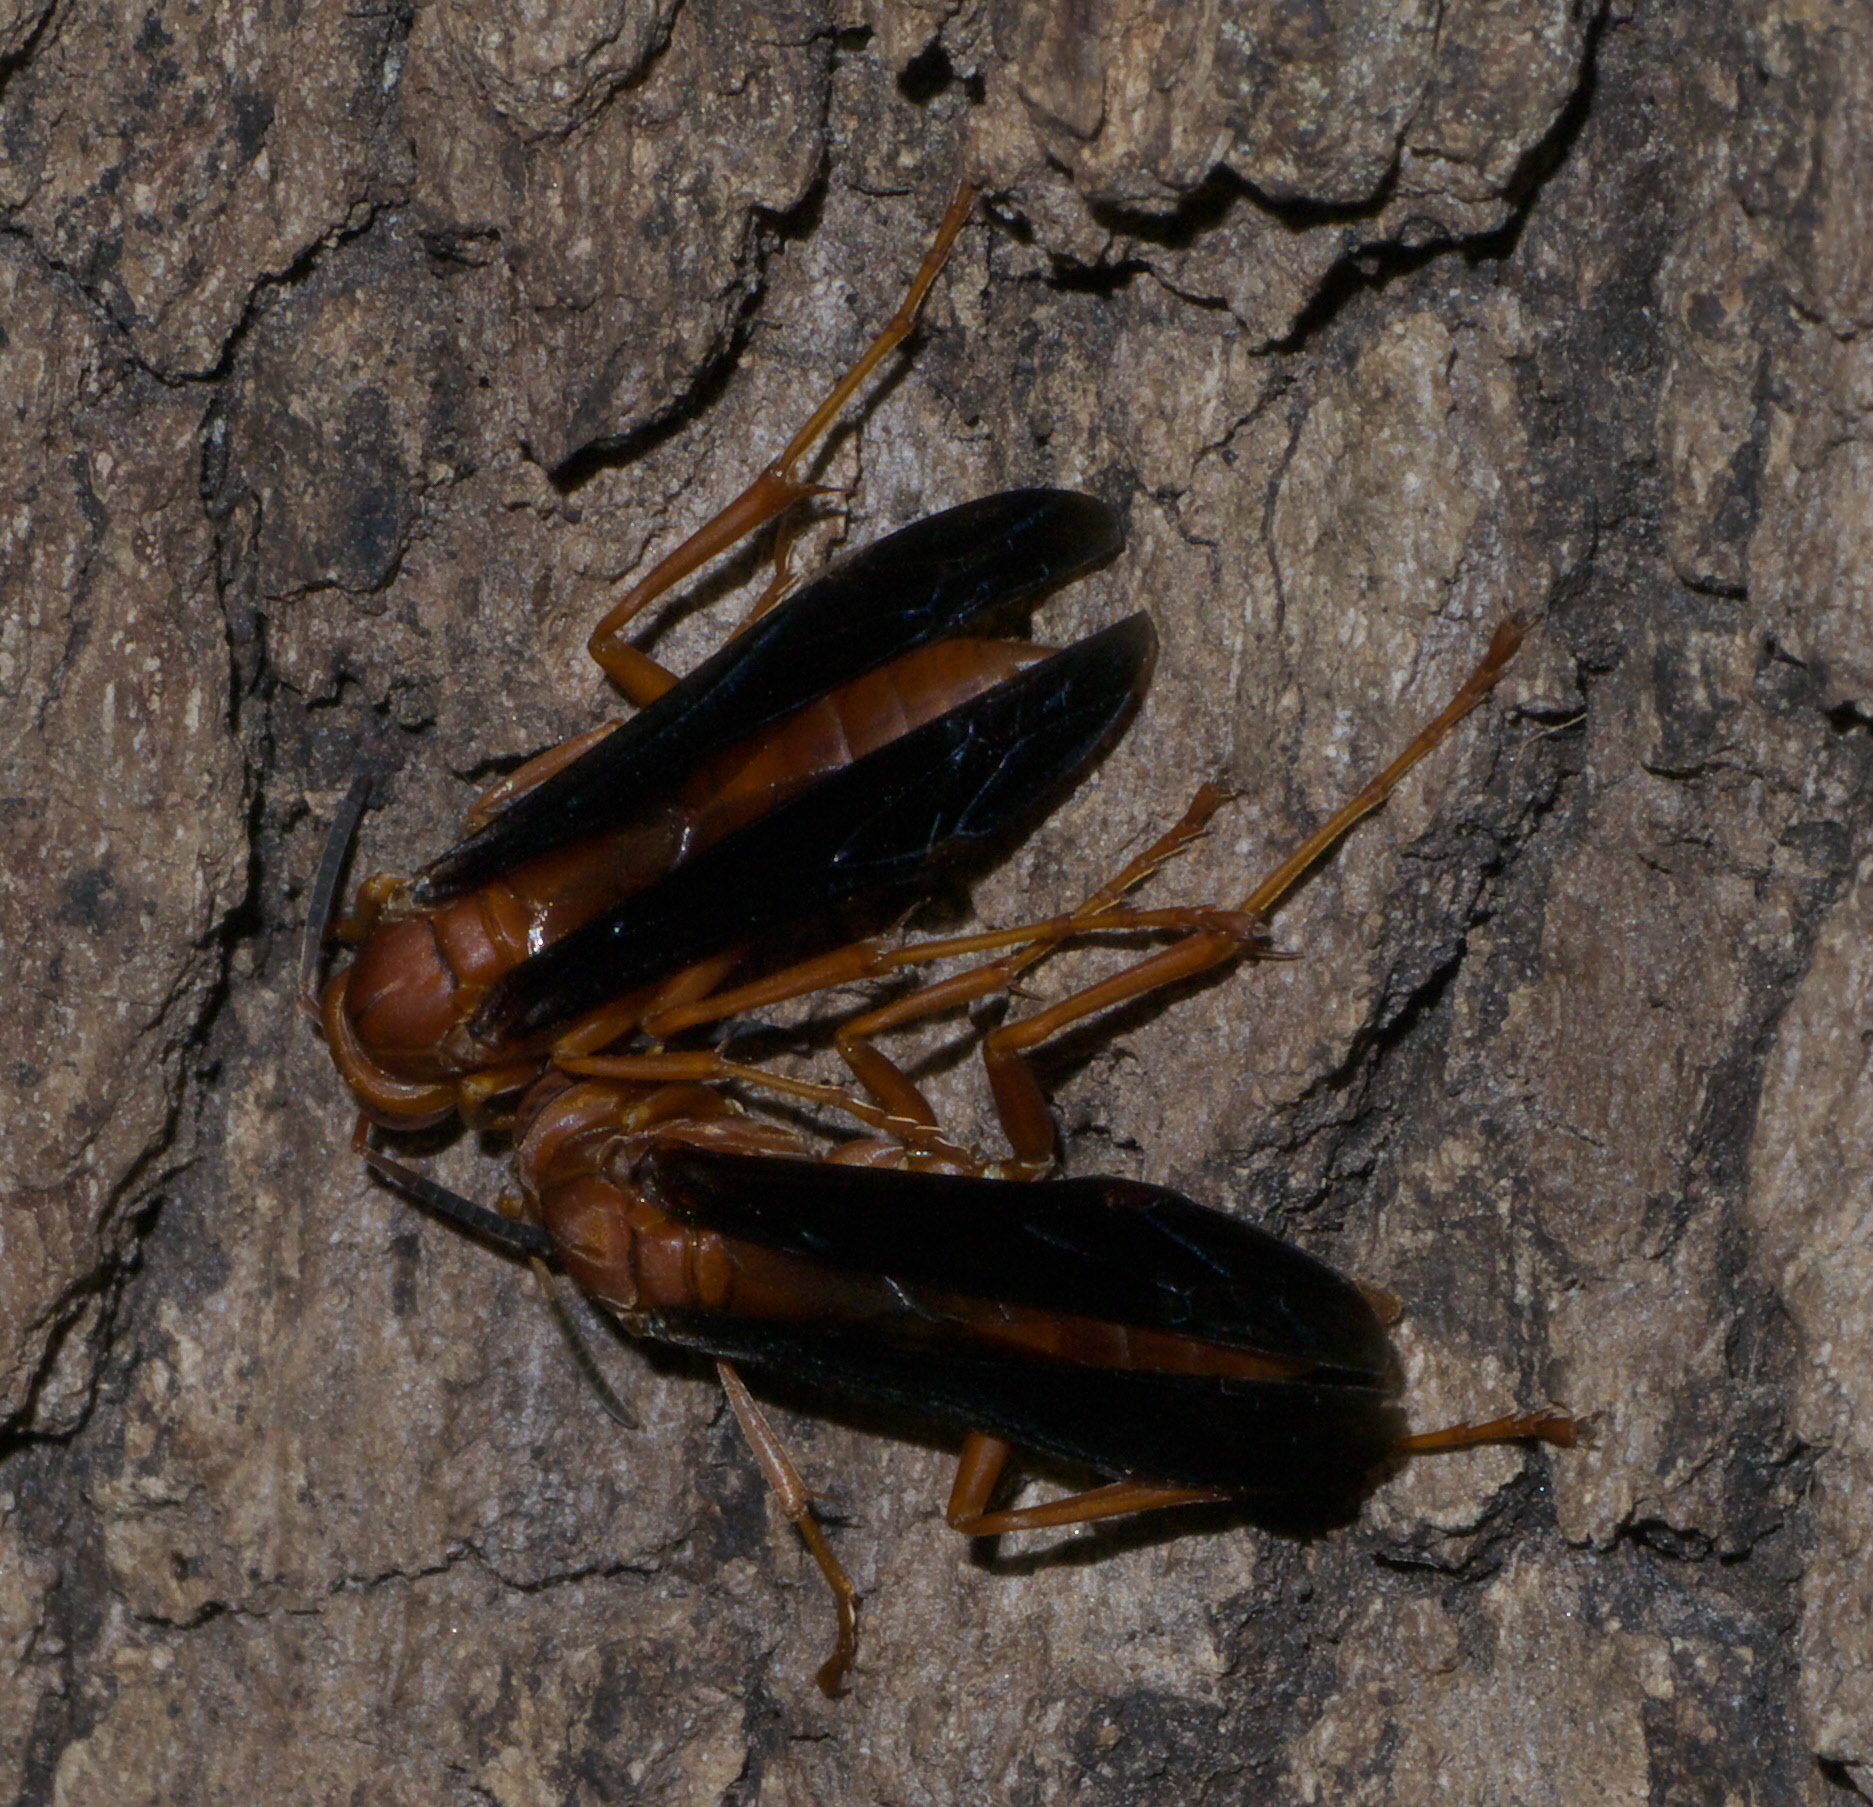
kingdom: Animalia
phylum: Arthropoda
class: Insecta
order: Hymenoptera
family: Vespidae
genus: Fuscopolistes
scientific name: Fuscopolistes
